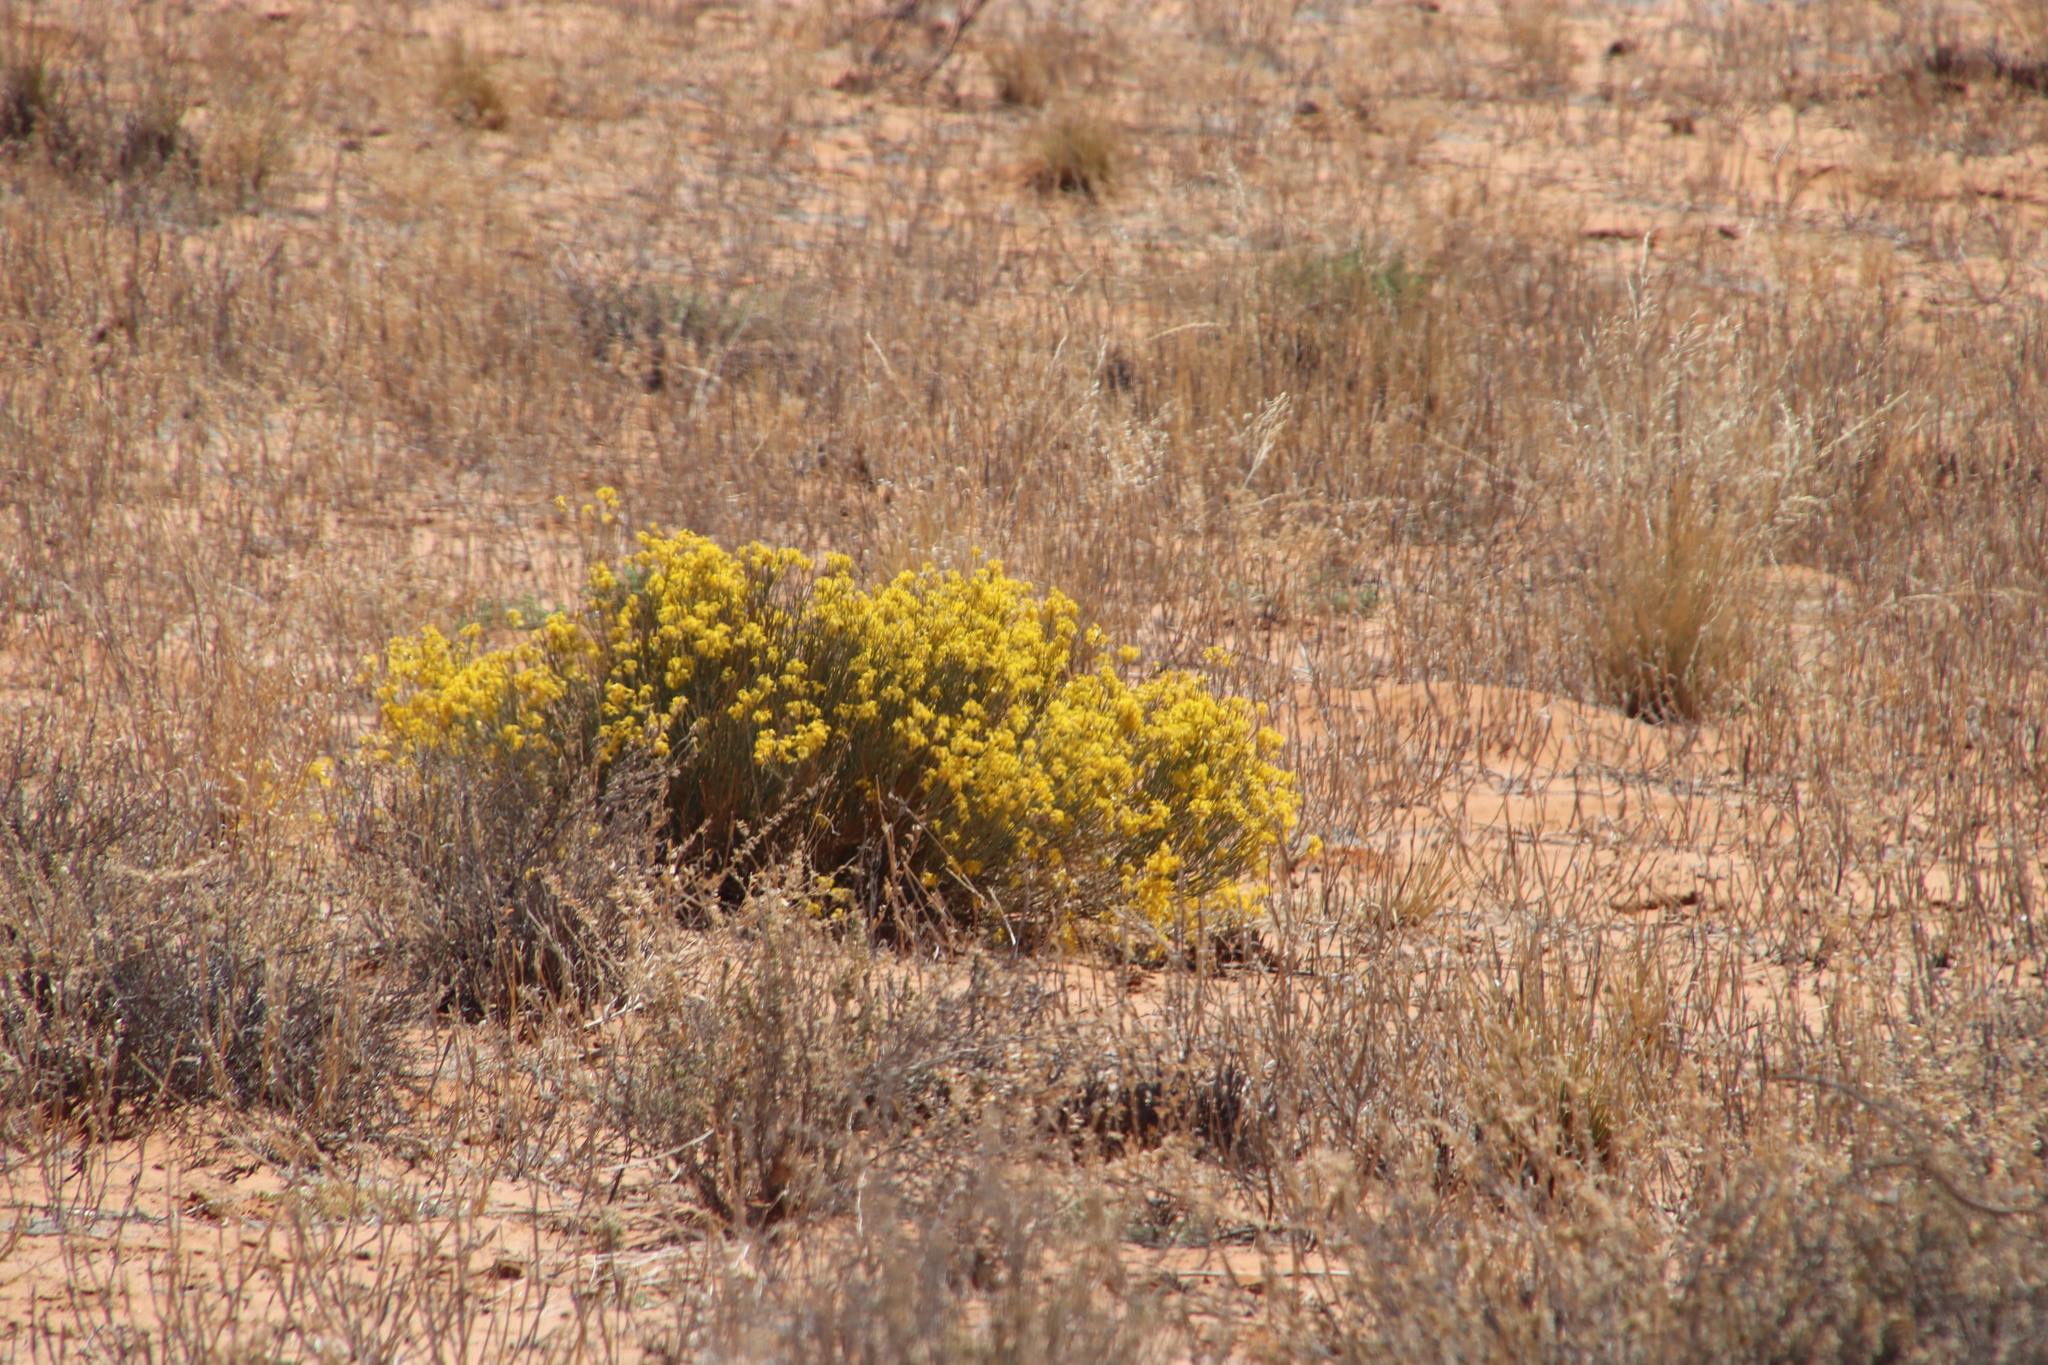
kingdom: Plantae
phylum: Tracheophyta
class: Magnoliopsida
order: Malvales
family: Thymelaeaceae
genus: Gnidia
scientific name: Gnidia polycephala
